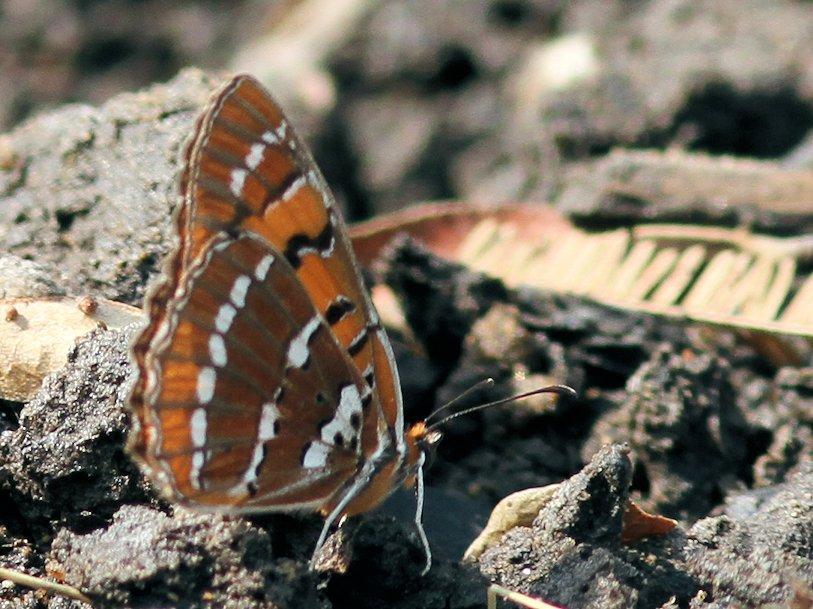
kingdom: Animalia
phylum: Arthropoda
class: Insecta
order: Lepidoptera
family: Nymphalidae
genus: Byblia
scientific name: Byblia ilithyia
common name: Spotted joker
